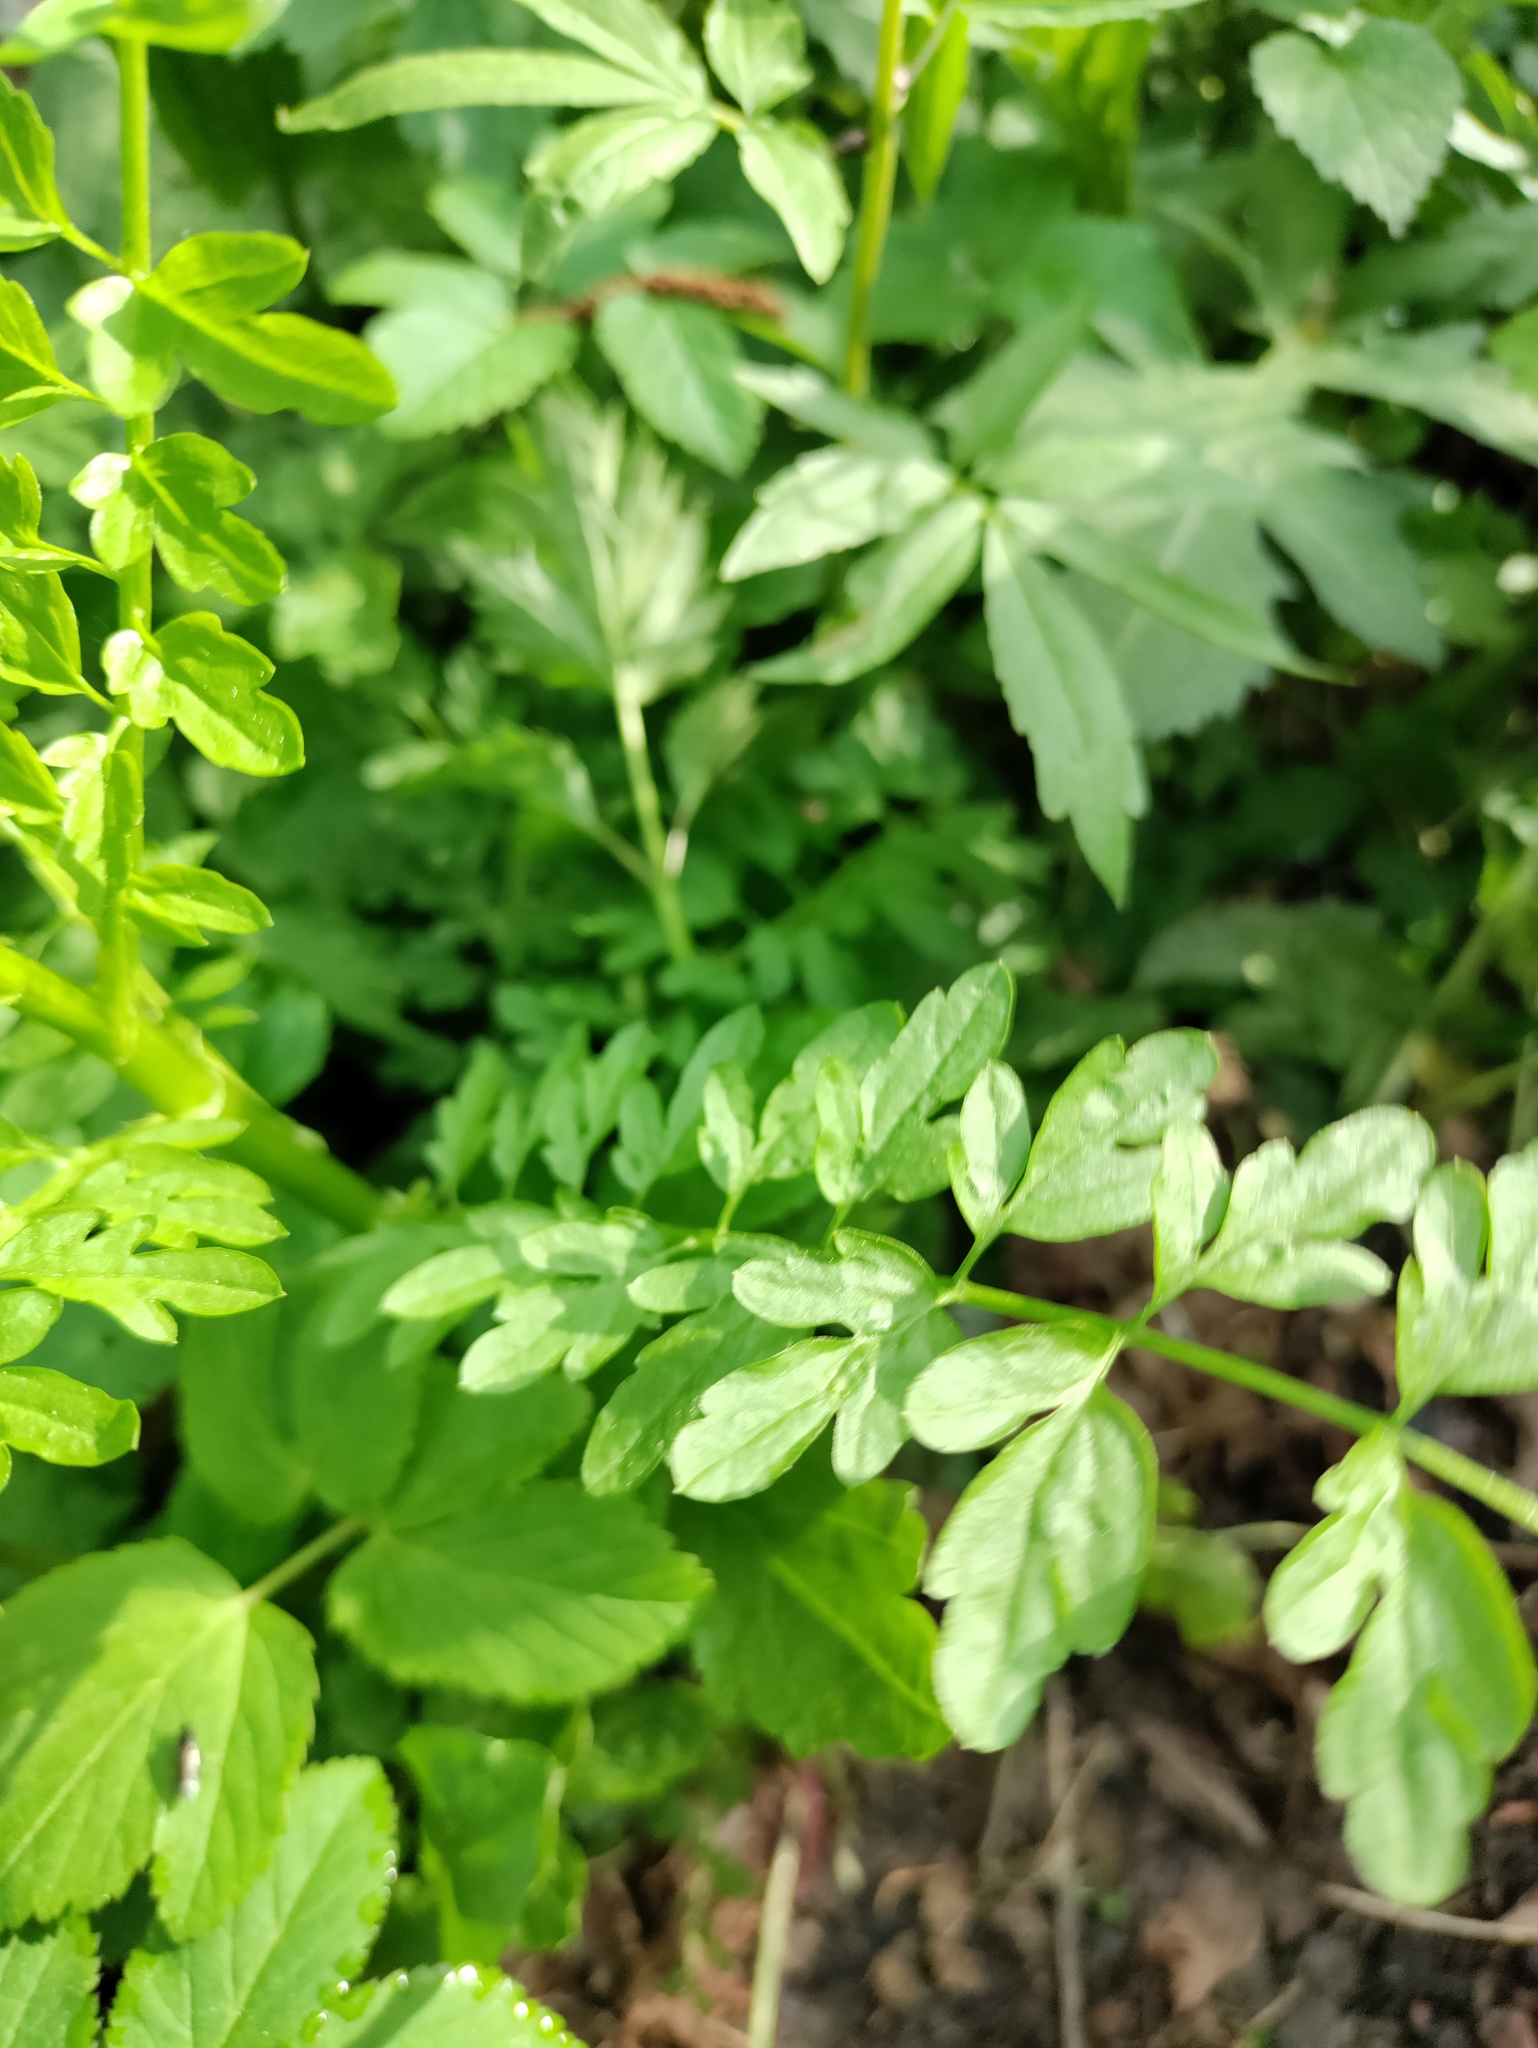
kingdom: Plantae
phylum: Tracheophyta
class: Magnoliopsida
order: Brassicales
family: Brassicaceae
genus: Cardamine
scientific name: Cardamine impatiens
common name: Narrow-leaved bitter-cress
